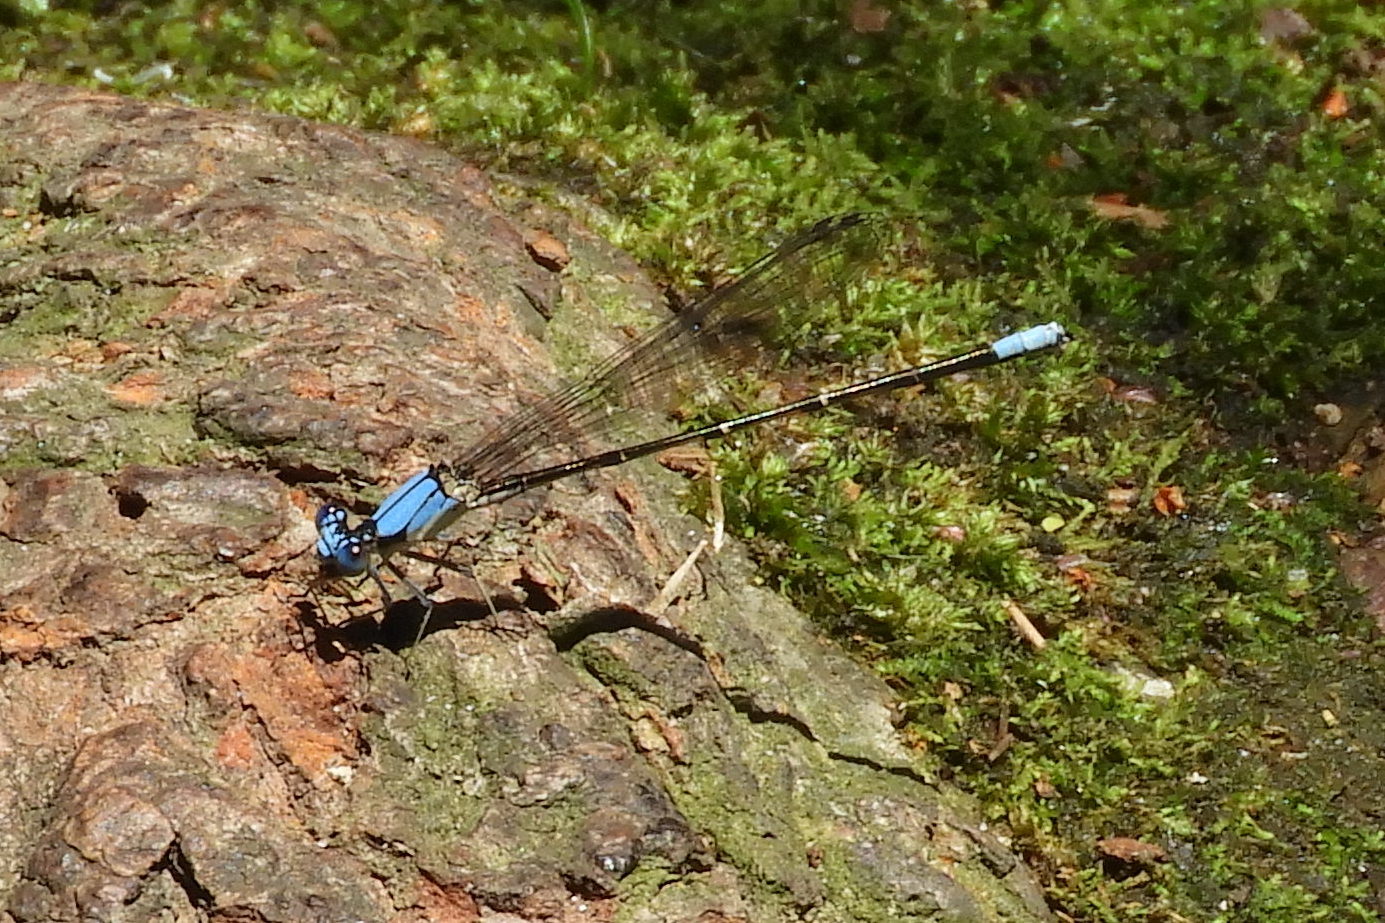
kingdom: Animalia
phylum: Arthropoda
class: Insecta
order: Odonata
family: Coenagrionidae
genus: Argia
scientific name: Argia apicalis
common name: Blue-fronted dancer
